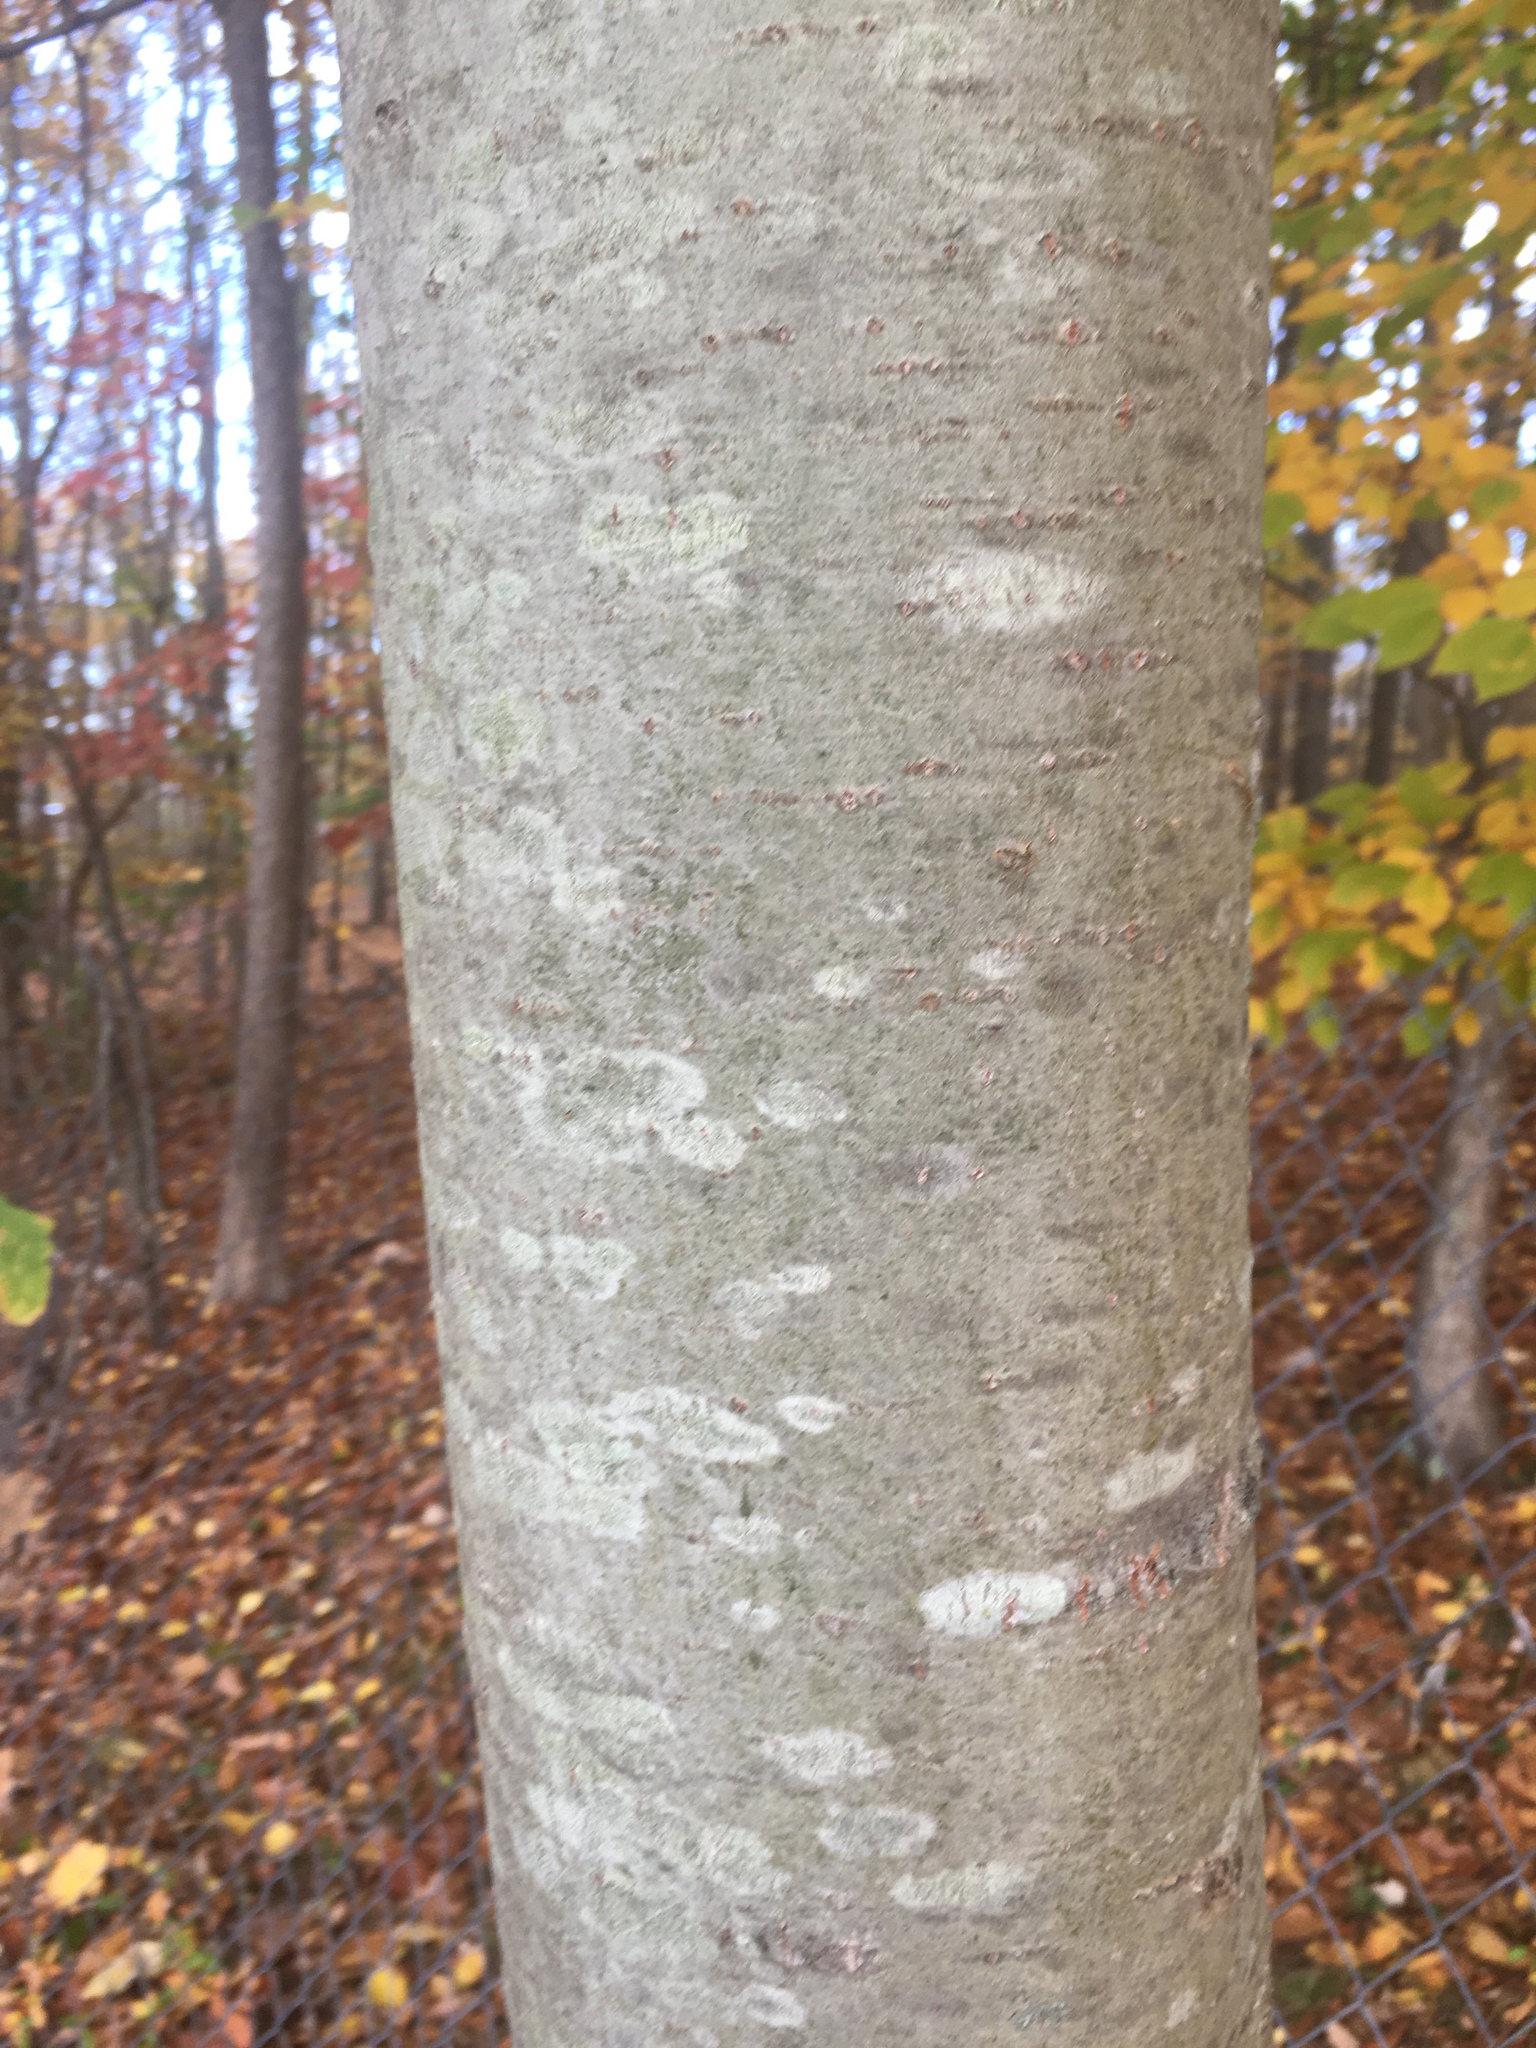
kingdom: Plantae
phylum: Tracheophyta
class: Magnoliopsida
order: Malpighiales
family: Salicaceae
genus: Populus
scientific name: Populus grandidentata
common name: Bigtooth aspen
